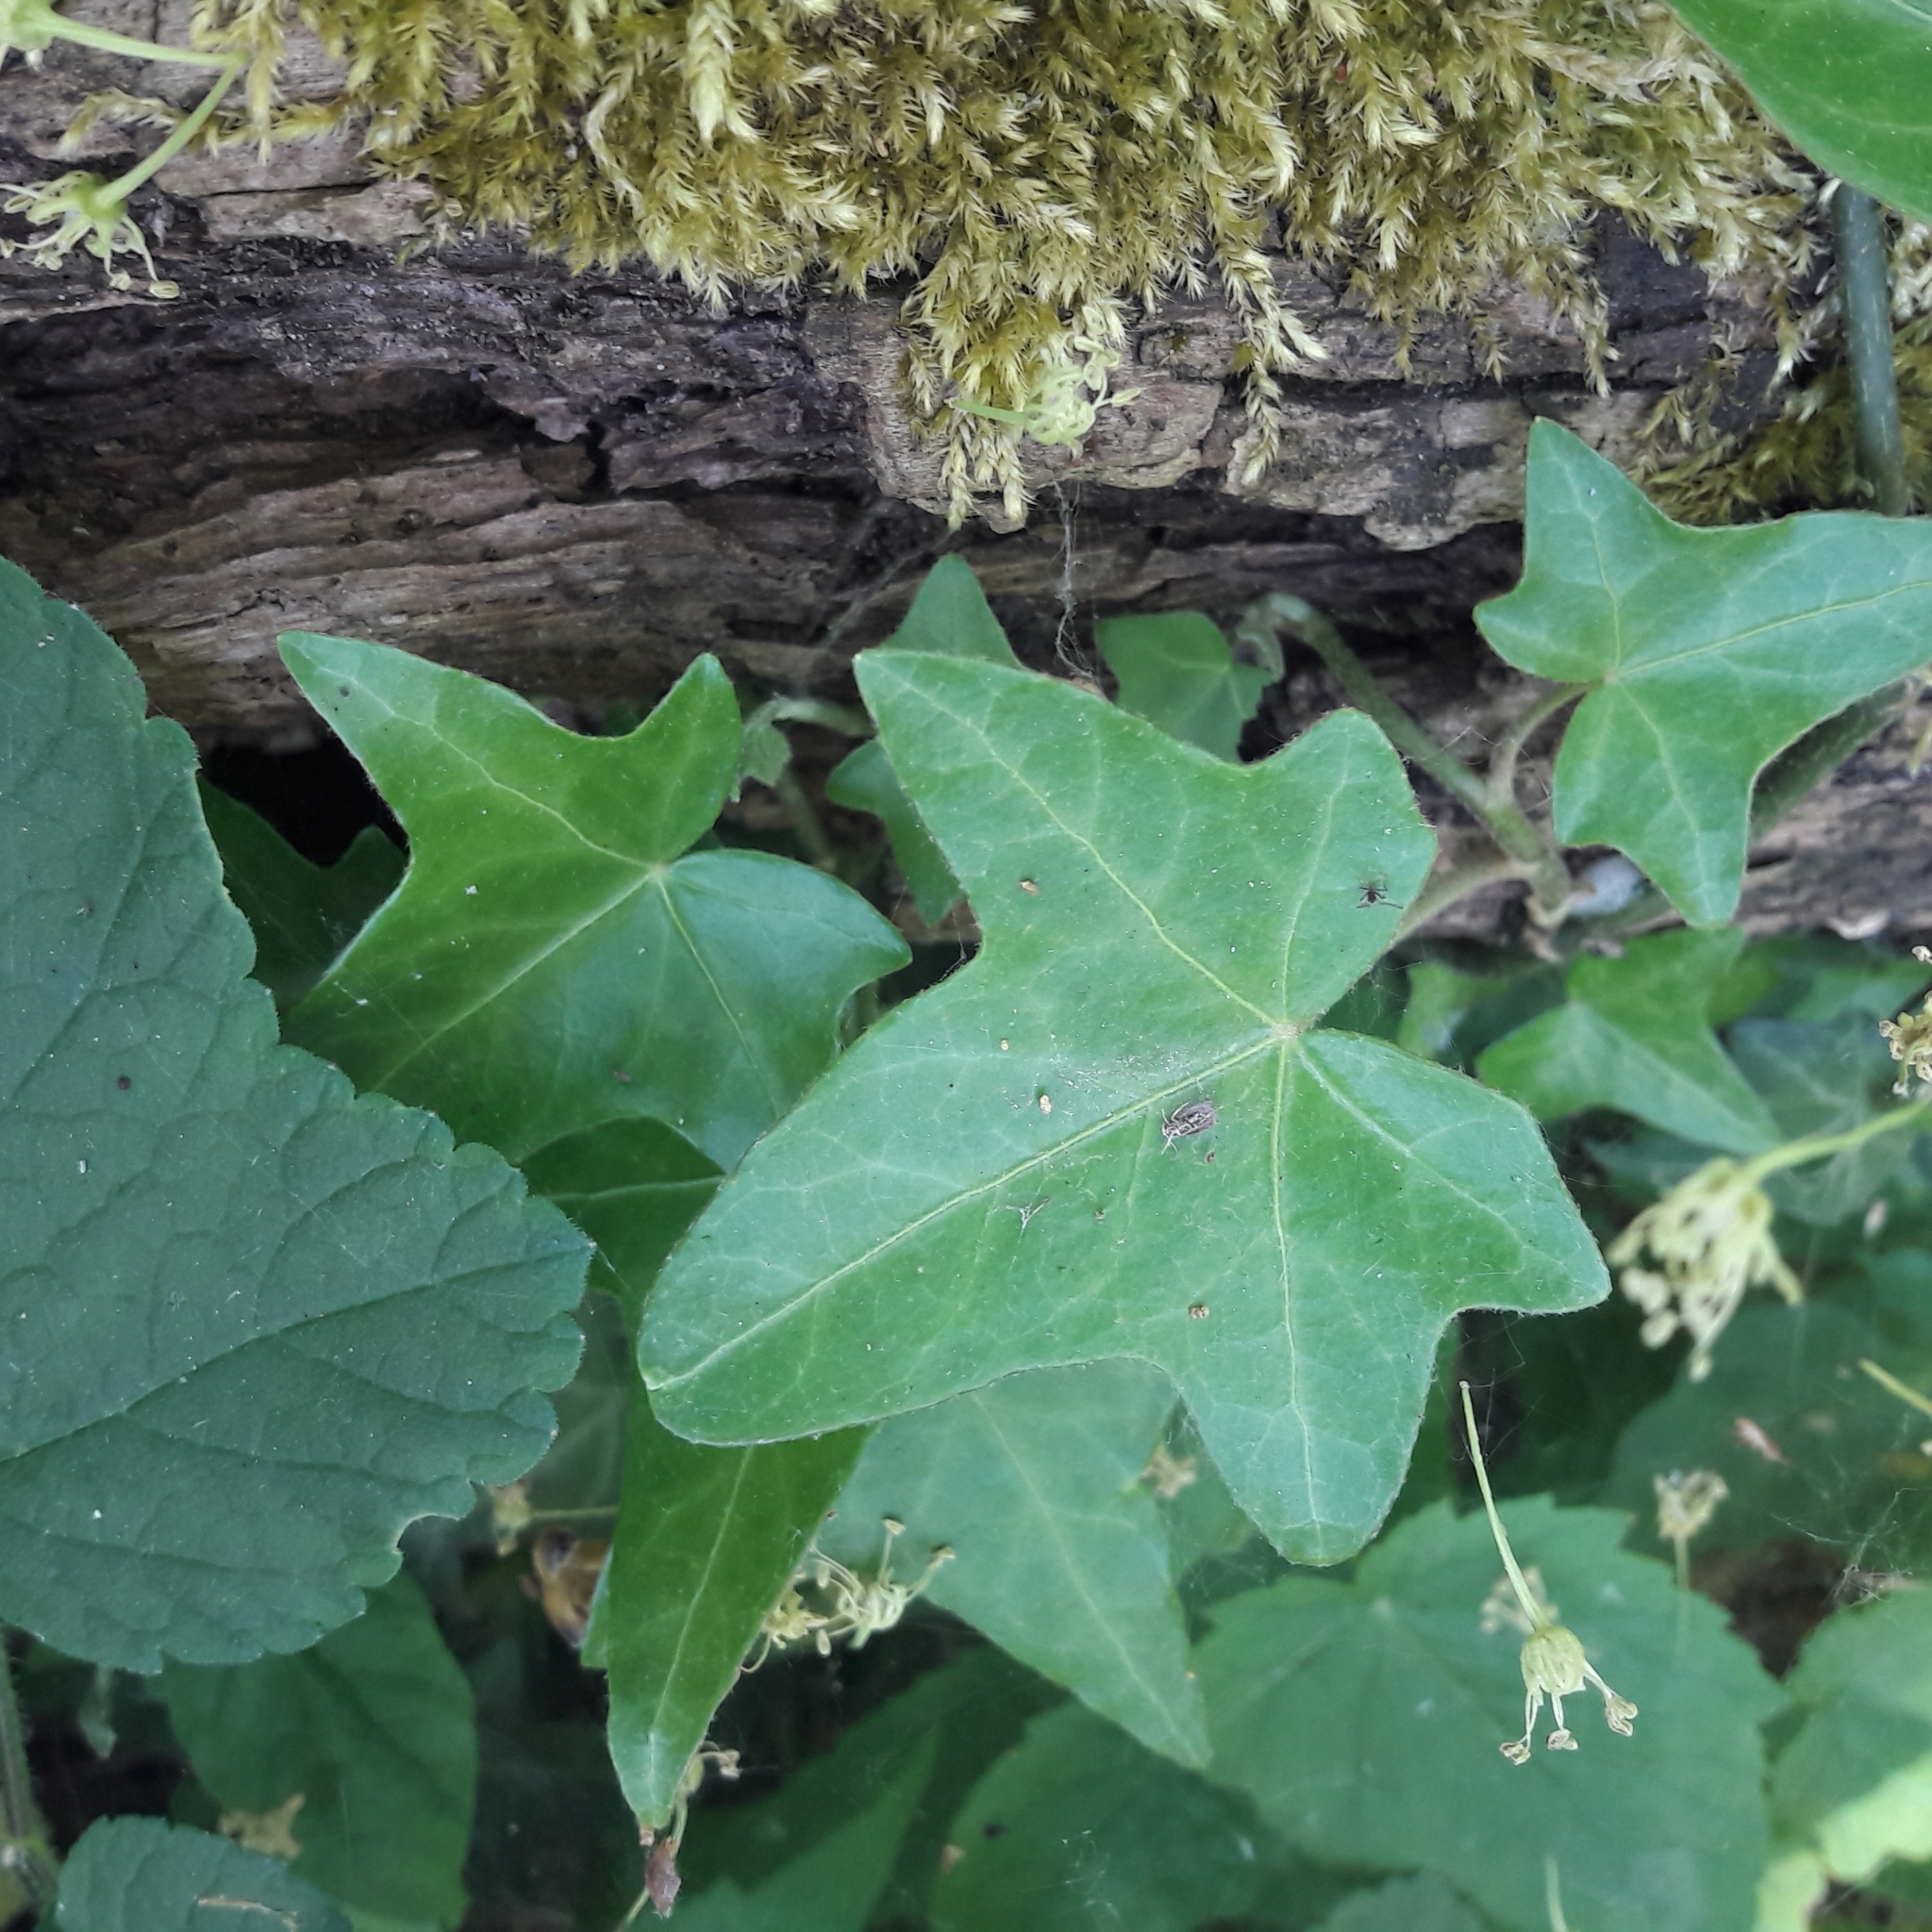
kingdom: Plantae
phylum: Tracheophyta
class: Magnoliopsida
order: Apiales
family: Araliaceae
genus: Hedera
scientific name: Hedera helix
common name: Ivy
